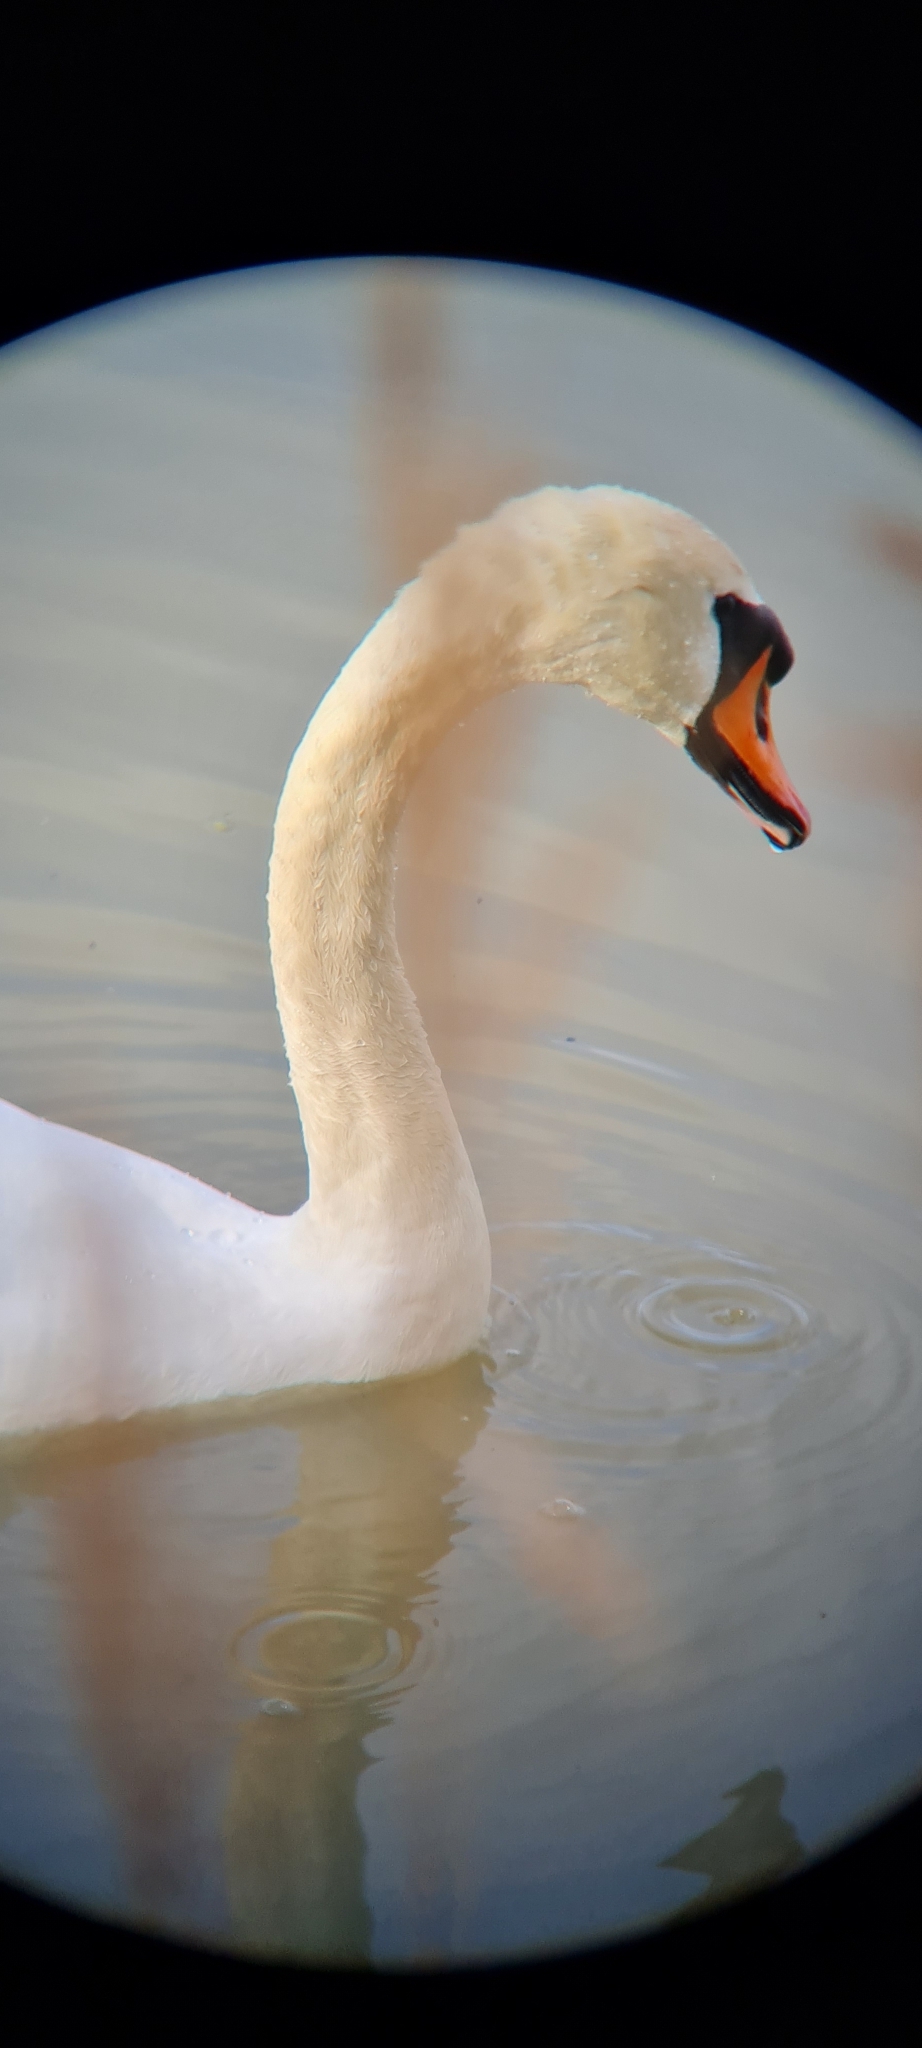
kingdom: Animalia
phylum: Chordata
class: Aves
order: Anseriformes
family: Anatidae
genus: Cygnus
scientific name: Cygnus olor
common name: Mute swan
